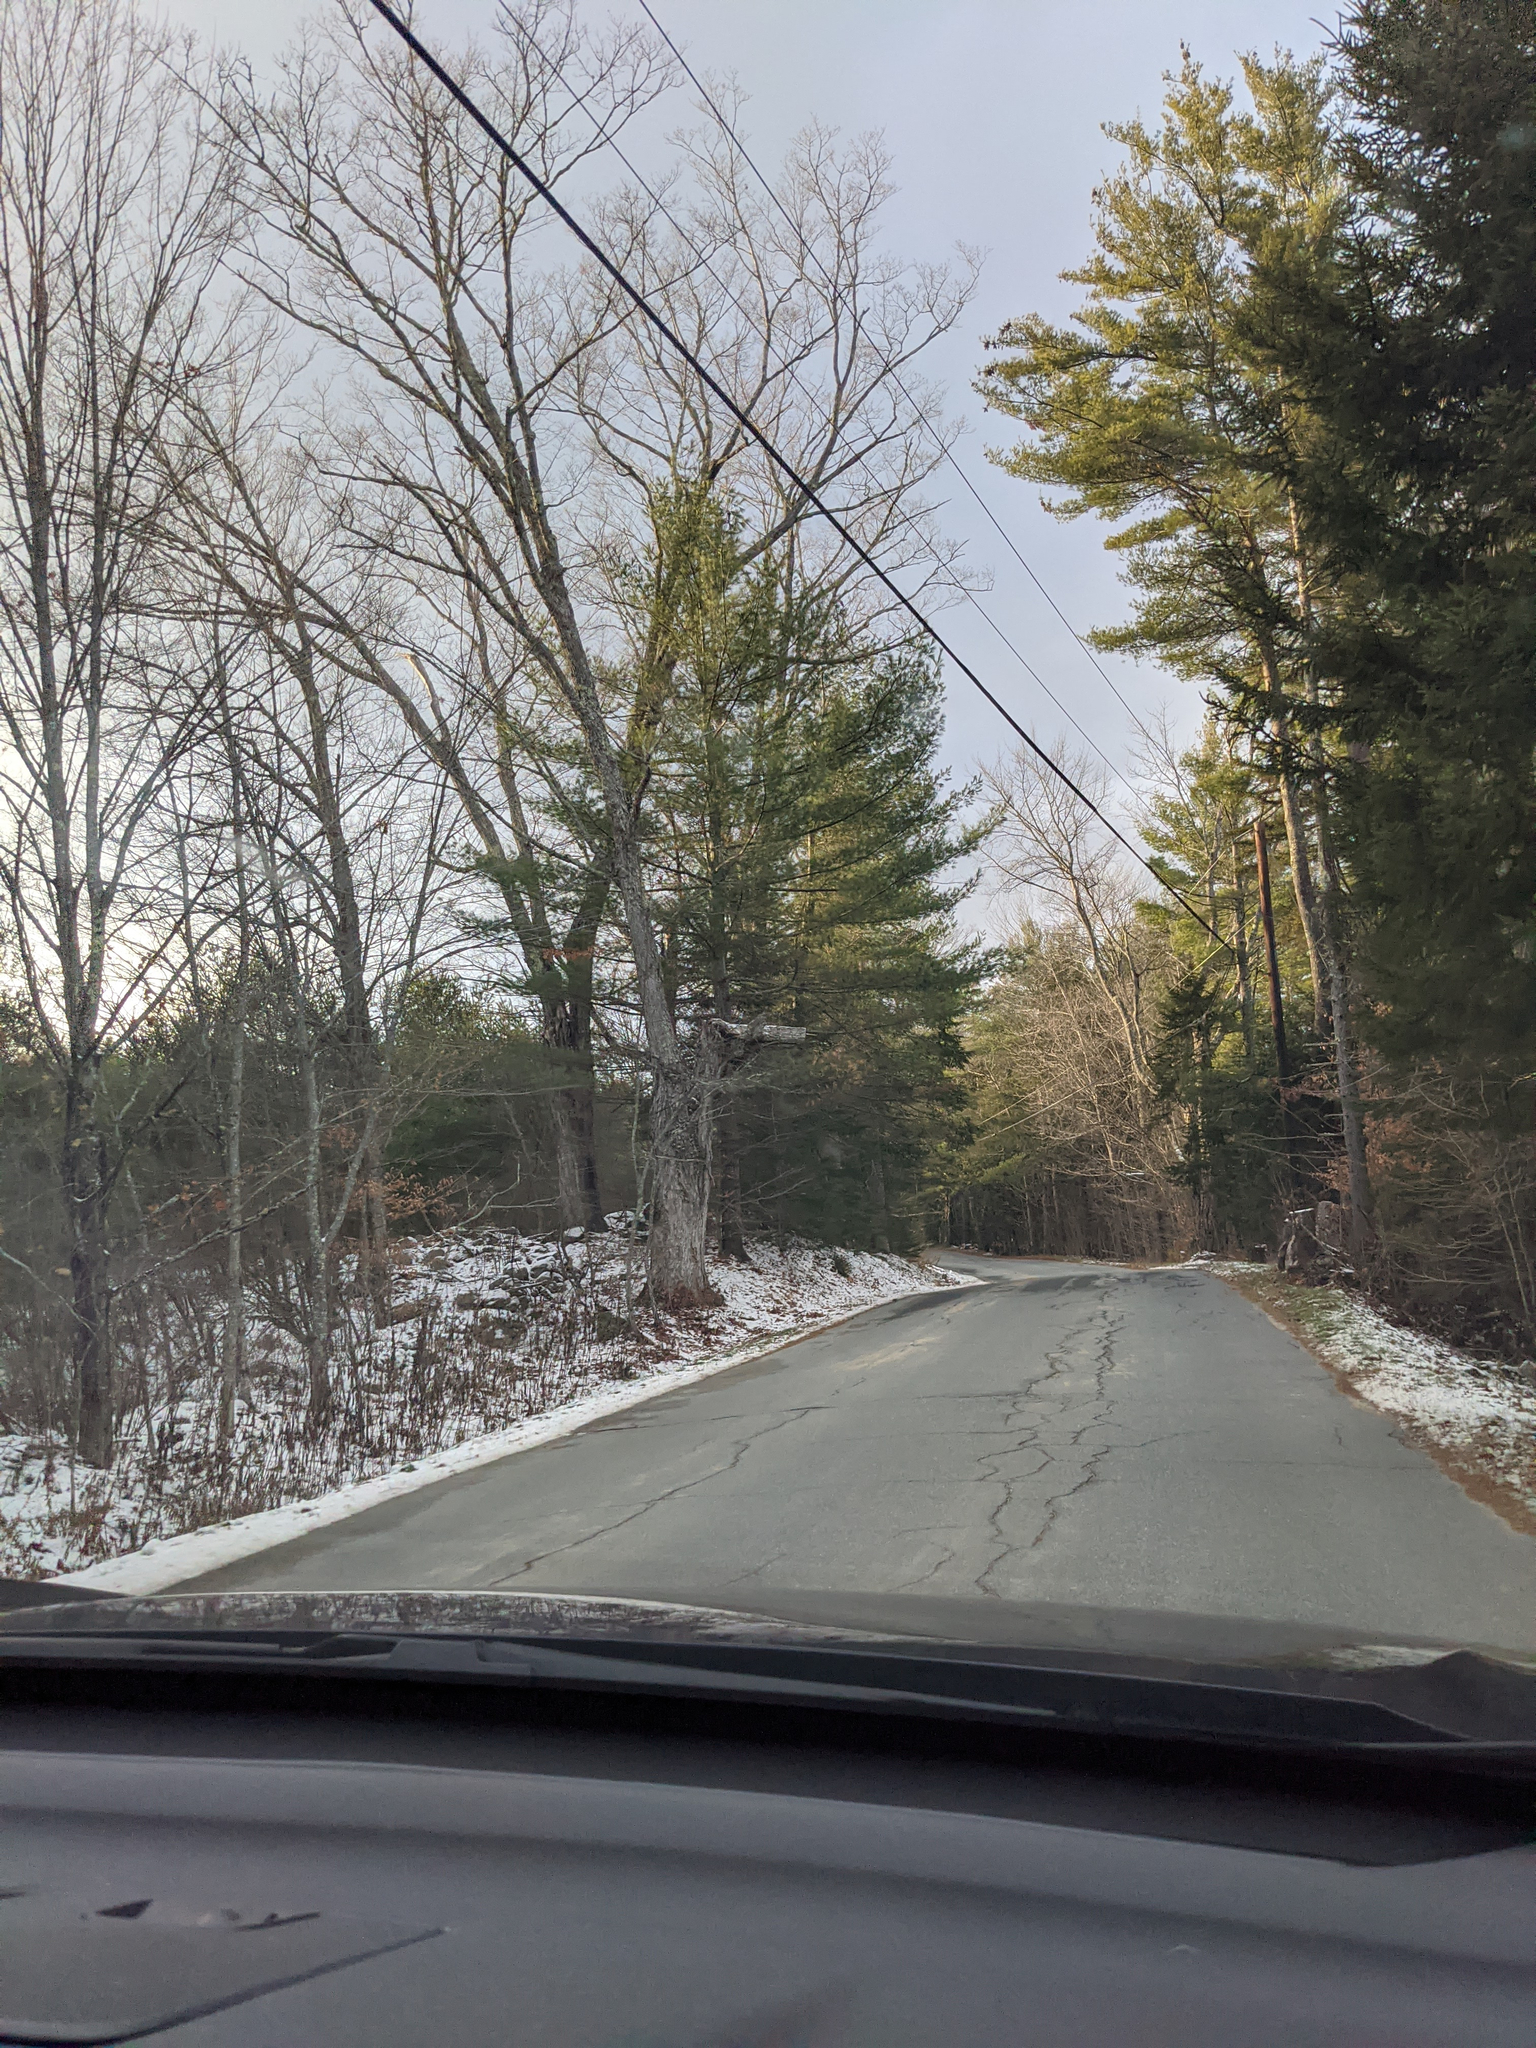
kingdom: Plantae
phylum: Tracheophyta
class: Pinopsida
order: Pinales
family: Pinaceae
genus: Pinus
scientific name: Pinus strobus
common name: Weymouth pine
